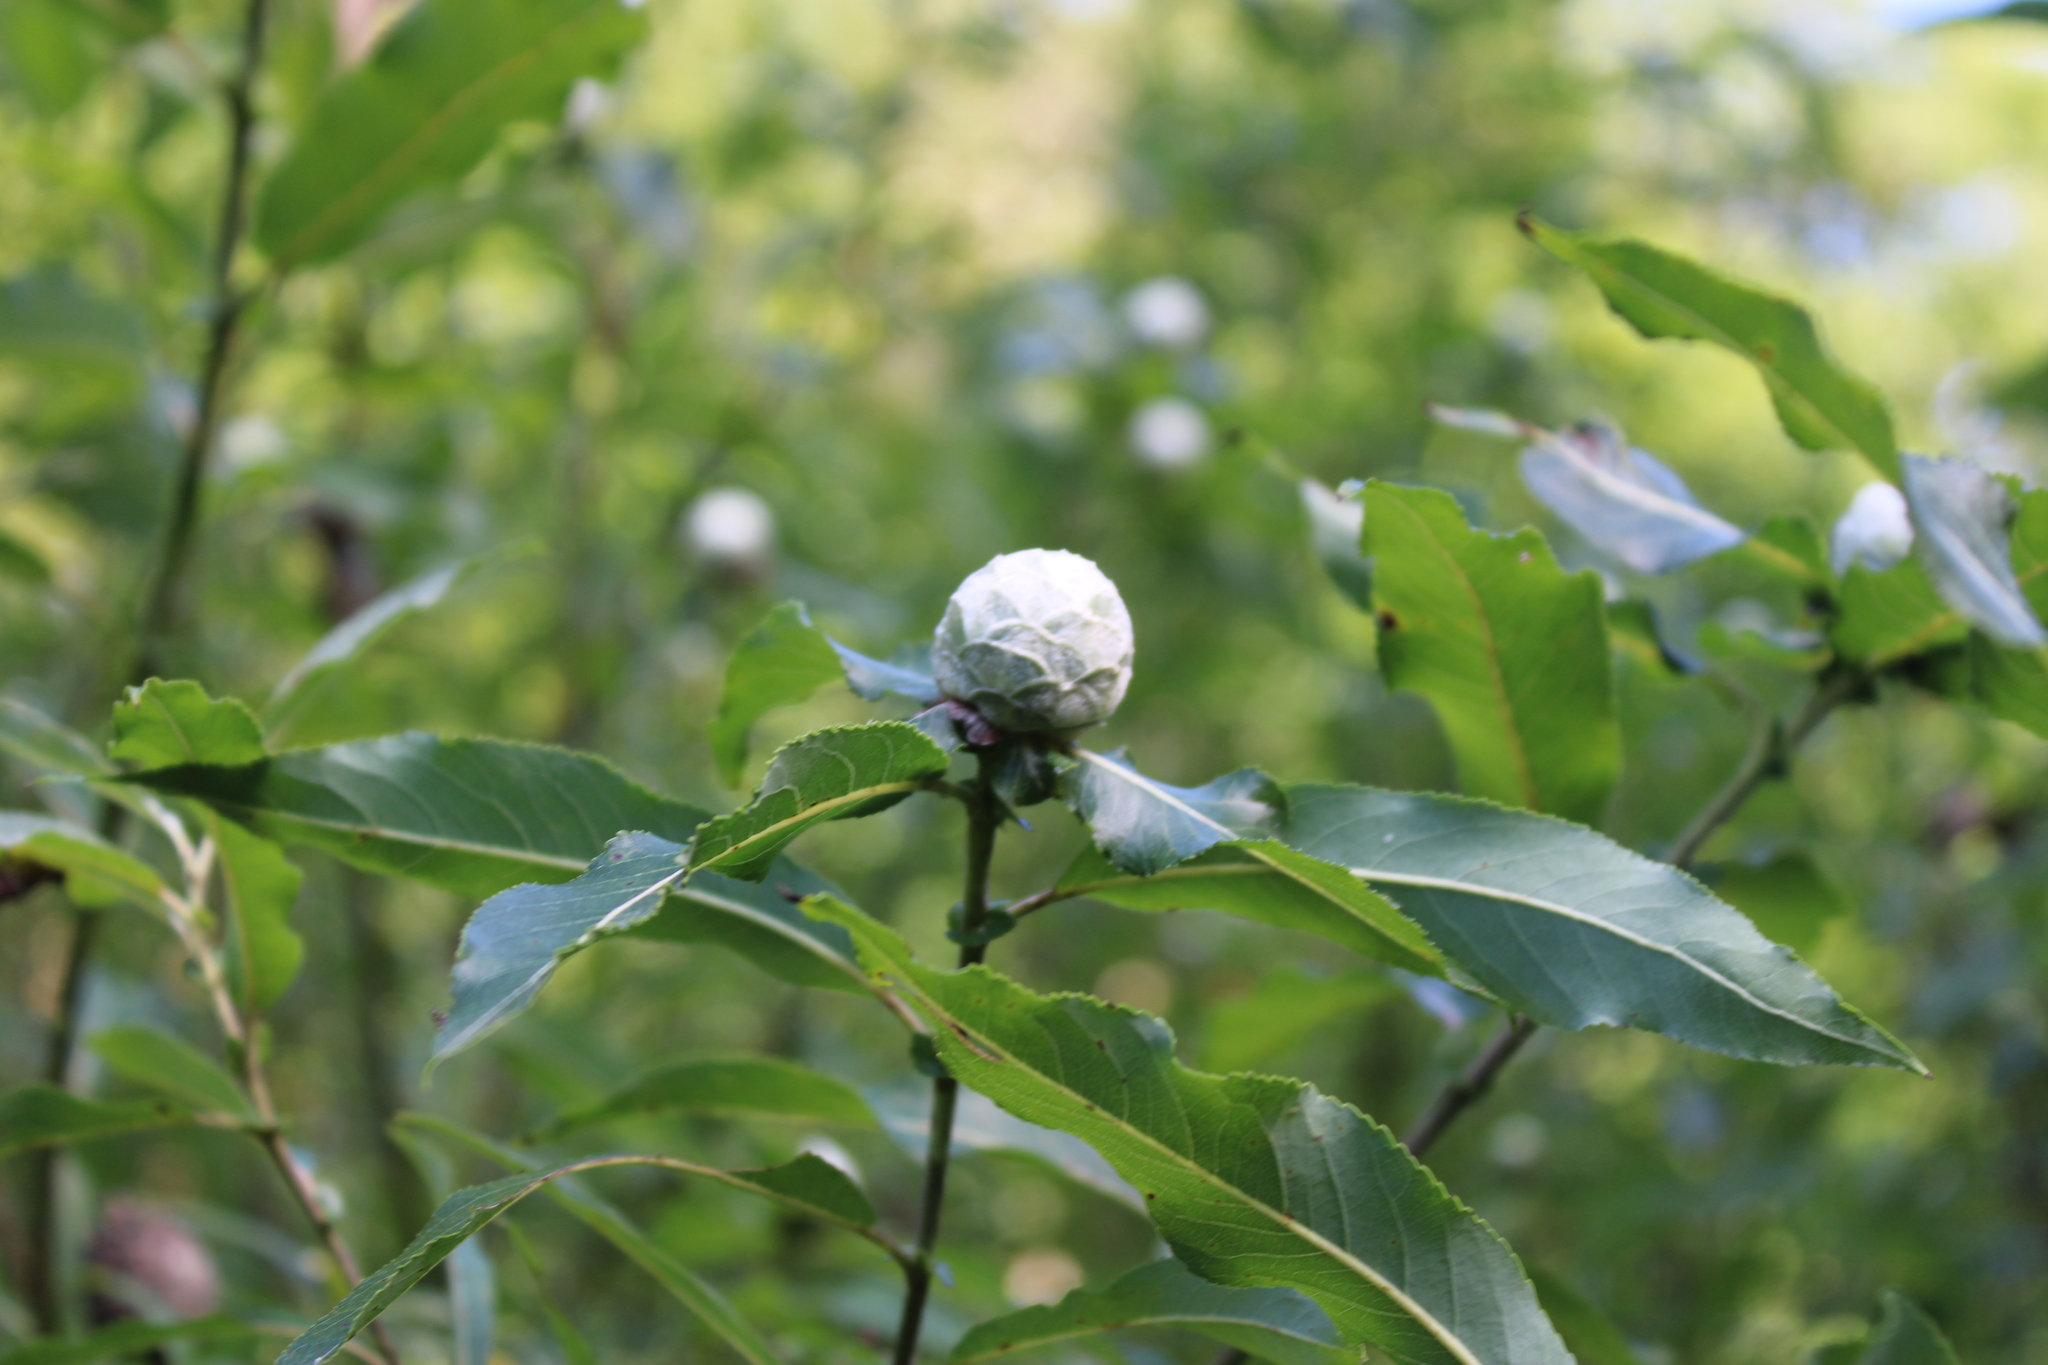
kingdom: Animalia
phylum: Arthropoda
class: Insecta
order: Diptera
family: Cecidomyiidae
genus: Rabdophaga
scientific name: Rabdophaga strobiloides
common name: Willow pinecone gall midge
